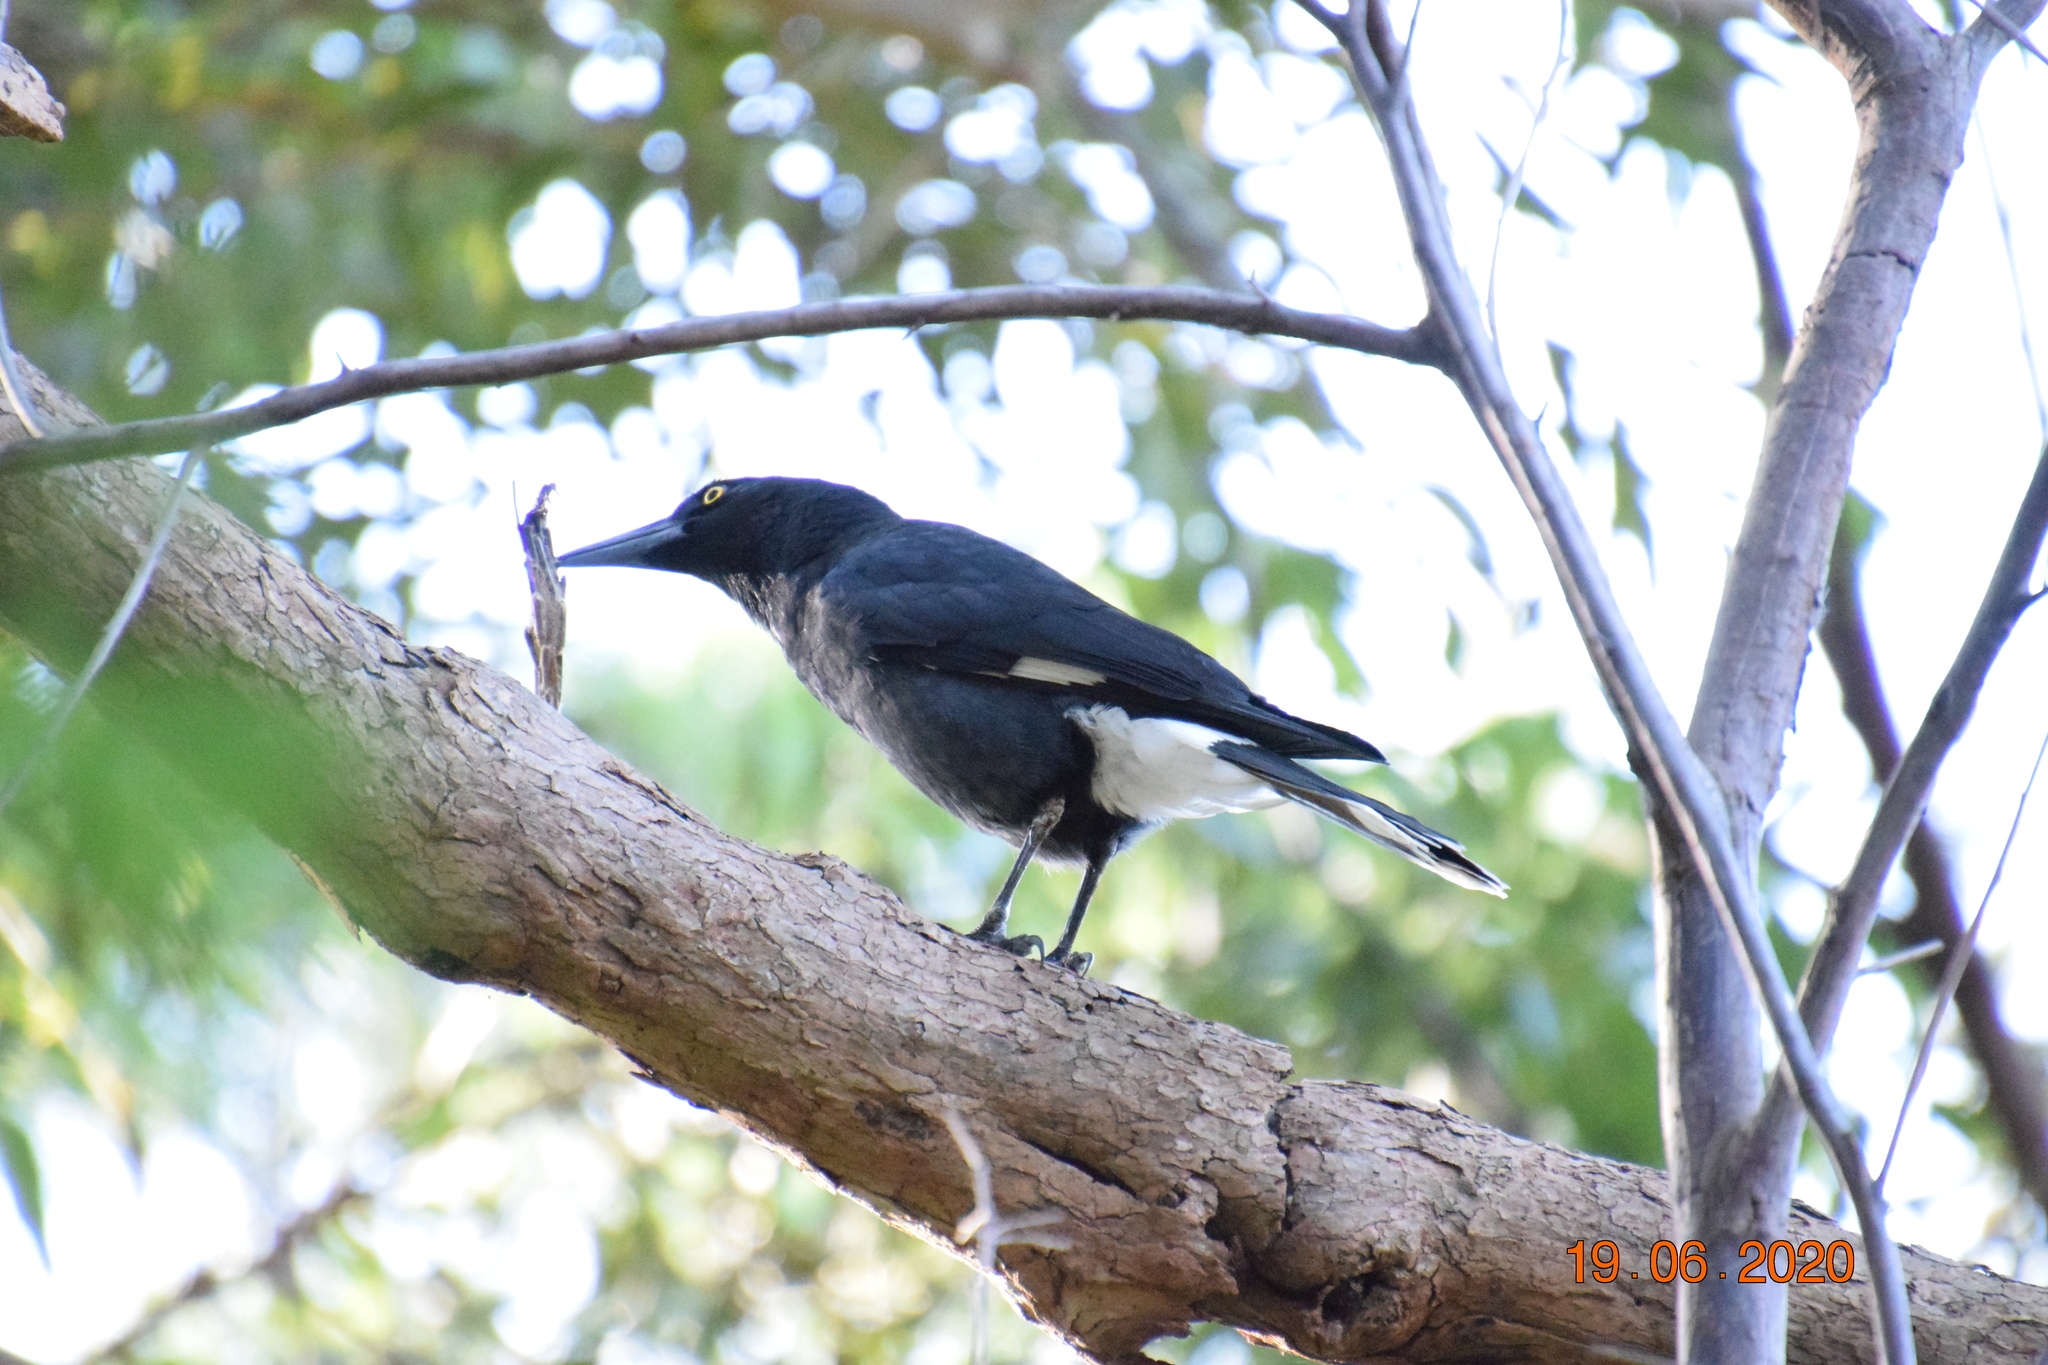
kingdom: Animalia
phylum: Arthropoda
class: Insecta
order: Lepidoptera
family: Psychidae
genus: Metura
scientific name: Metura elongatus
